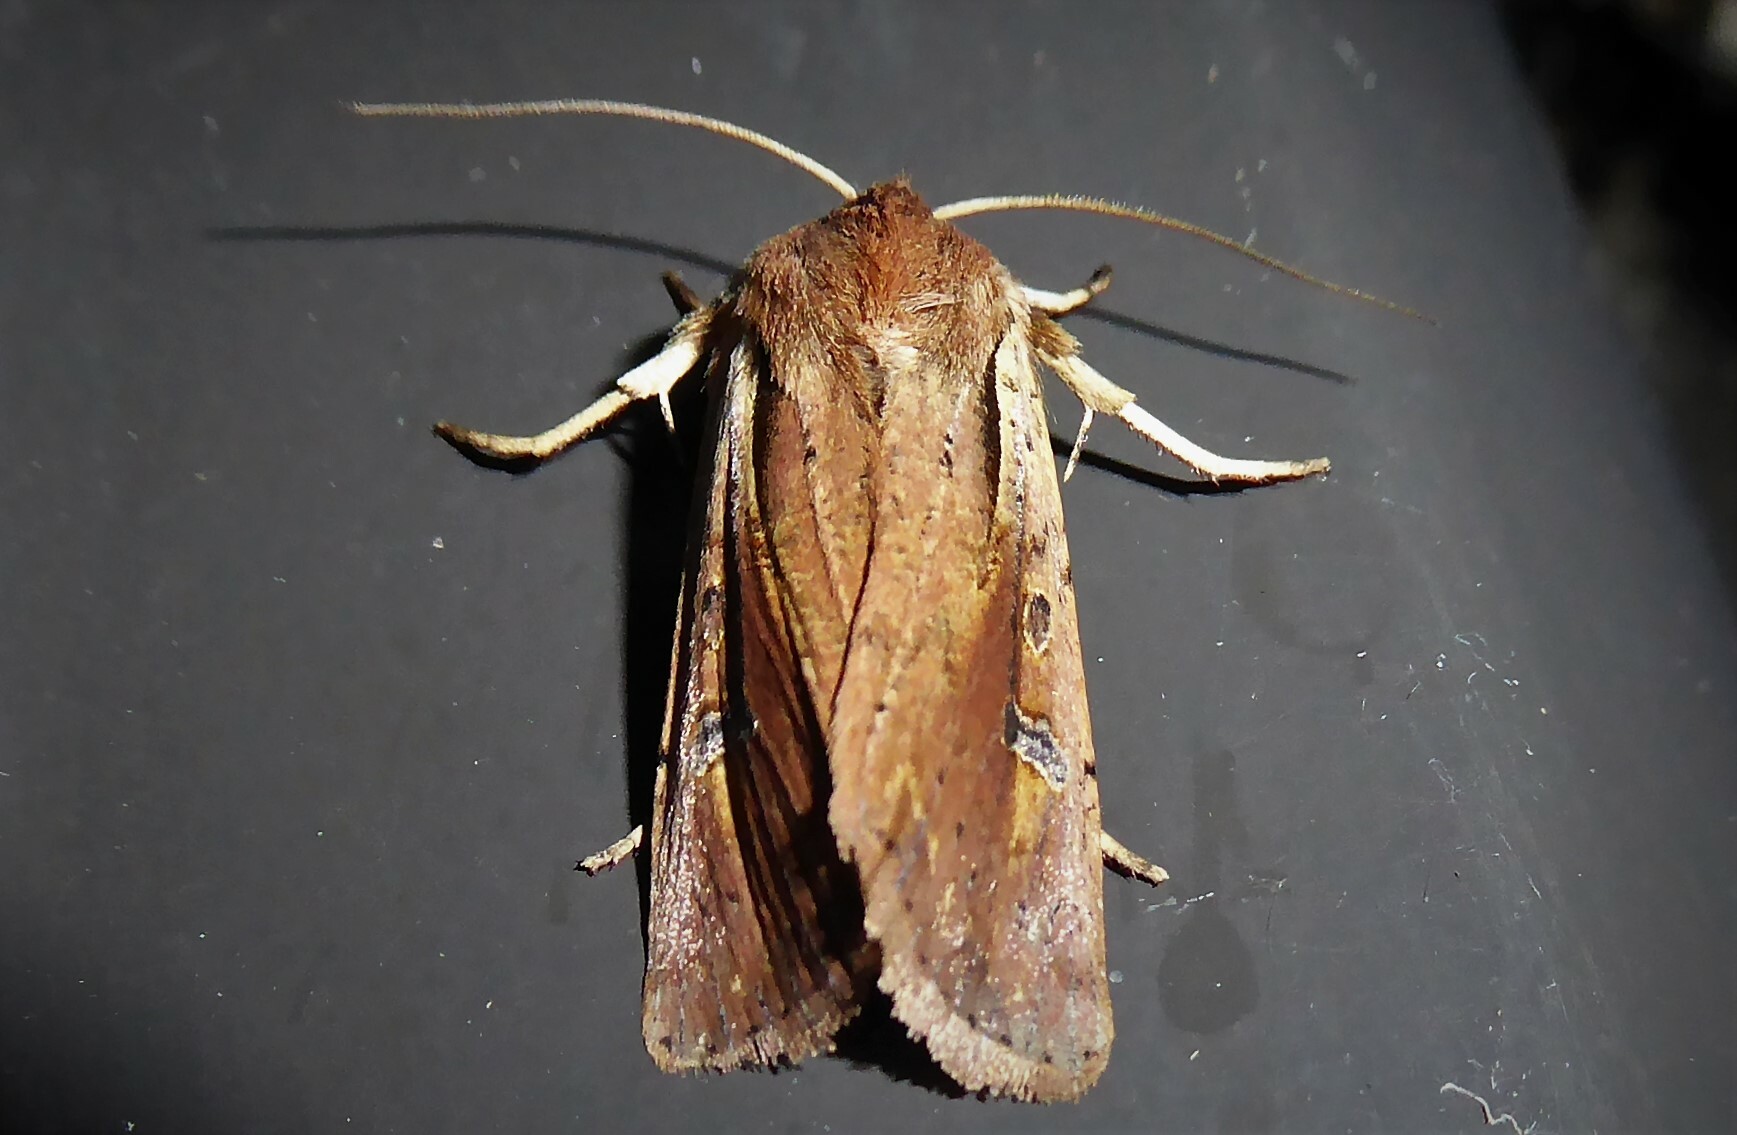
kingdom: Animalia
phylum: Arthropoda
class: Insecta
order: Lepidoptera
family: Noctuidae
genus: Ichneutica
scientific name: Ichneutica atristriga
